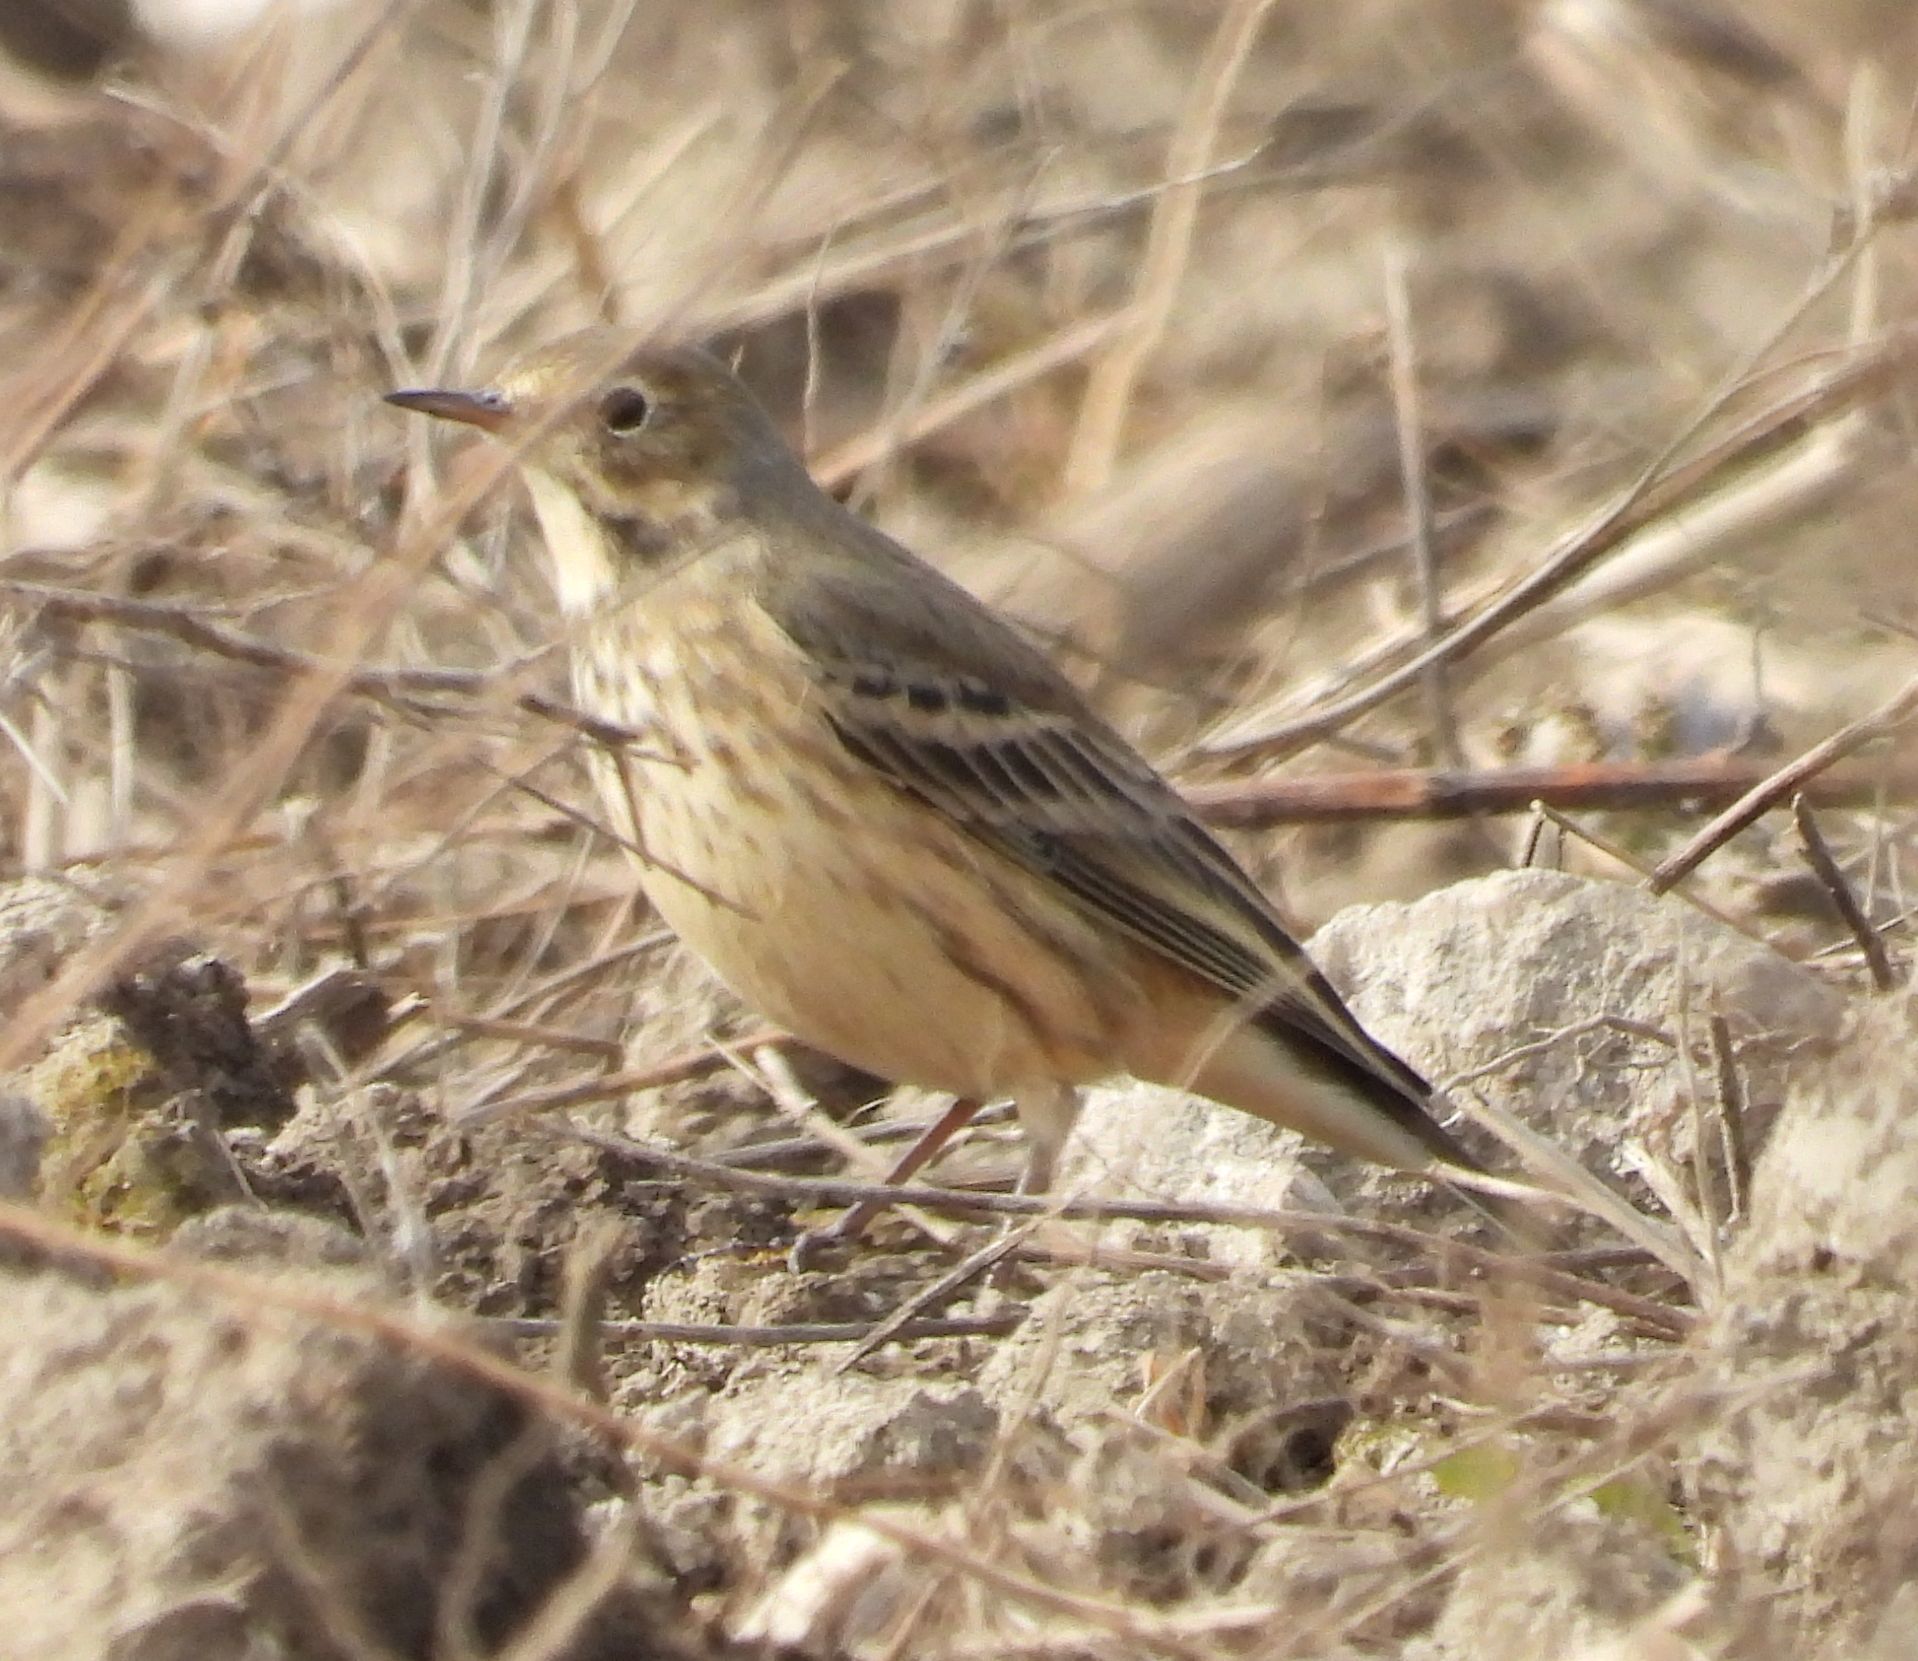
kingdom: Animalia
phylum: Chordata
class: Aves
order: Passeriformes
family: Motacillidae
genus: Anthus
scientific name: Anthus rubescens
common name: Buff-bellied pipit
